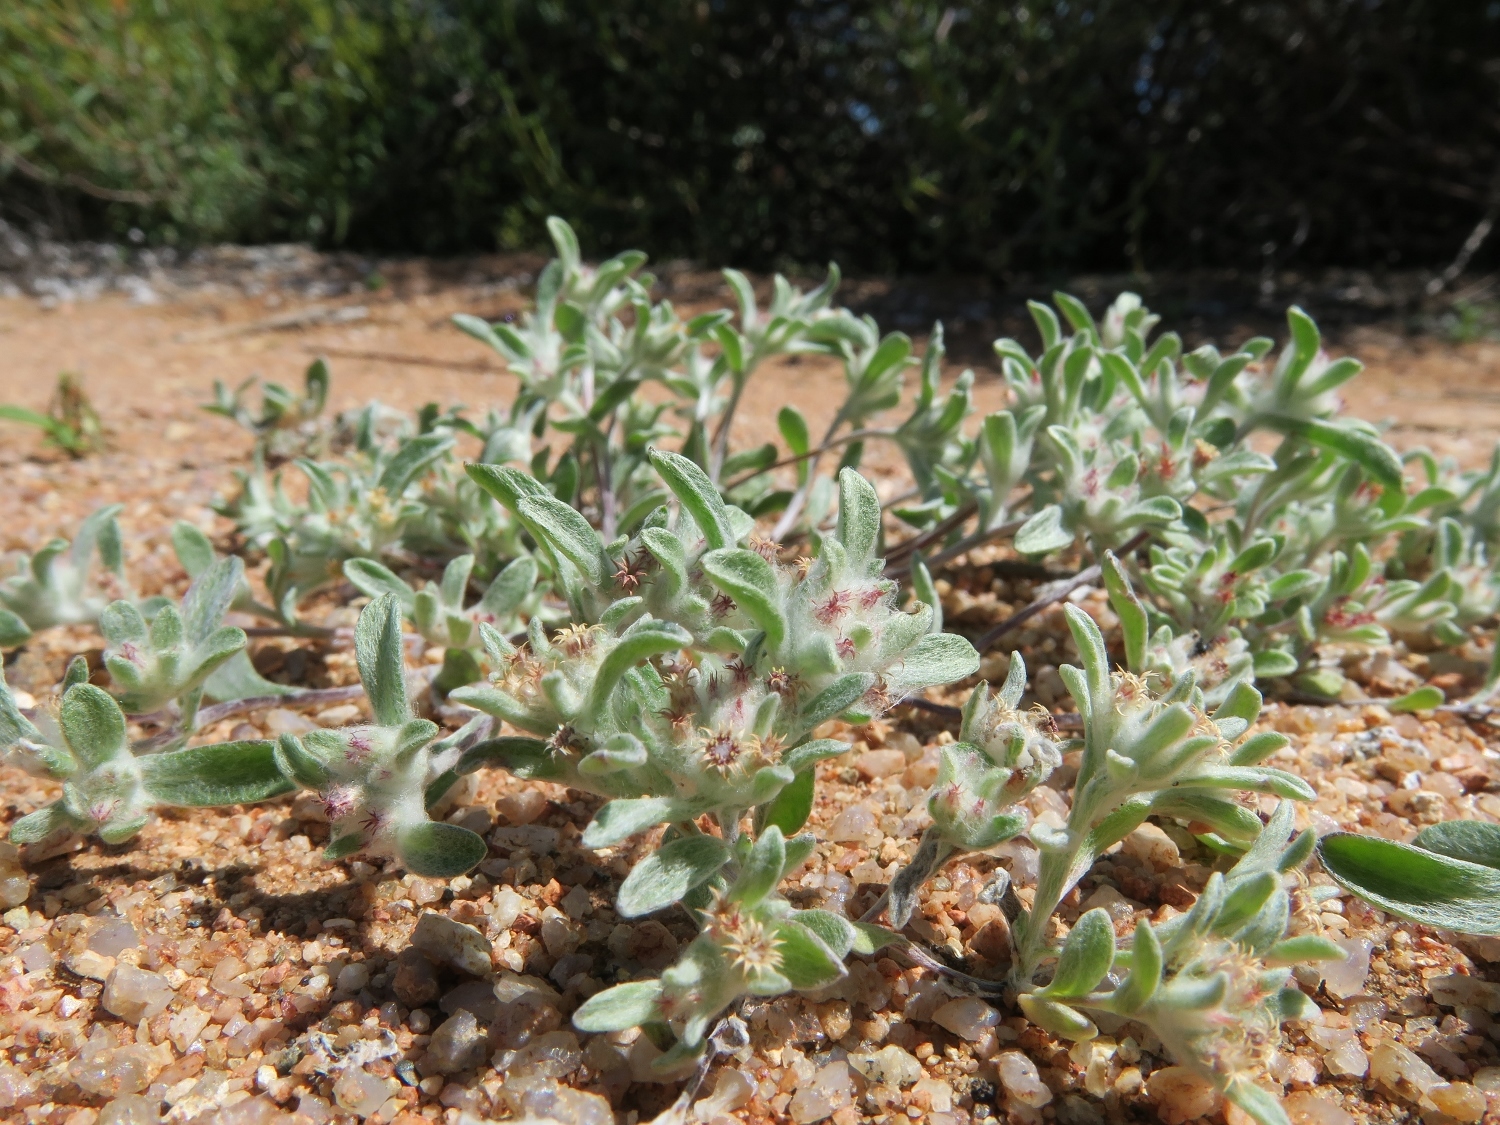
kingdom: Plantae
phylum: Tracheophyta
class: Magnoliopsida
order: Asterales
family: Asteraceae
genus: Helichrysum
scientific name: Helichrysum tinctum
